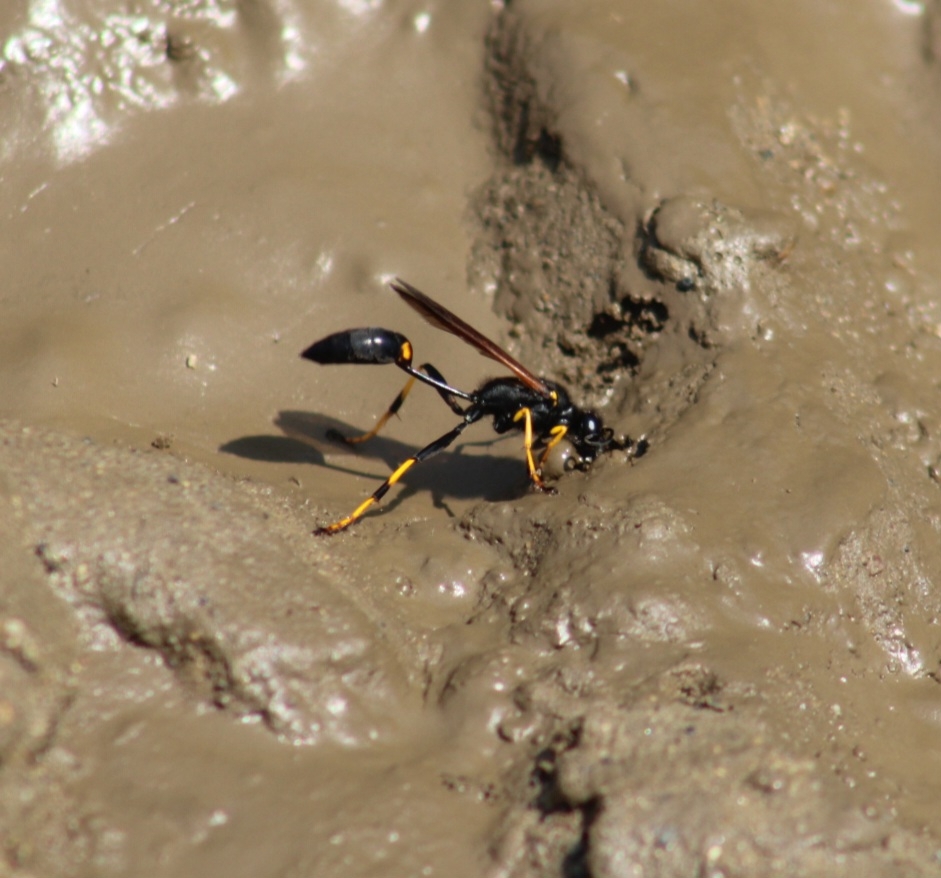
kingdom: Animalia
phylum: Arthropoda
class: Insecta
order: Hymenoptera
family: Sphecidae
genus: Sceliphron
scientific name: Sceliphron caementarium
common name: Mud dauber
